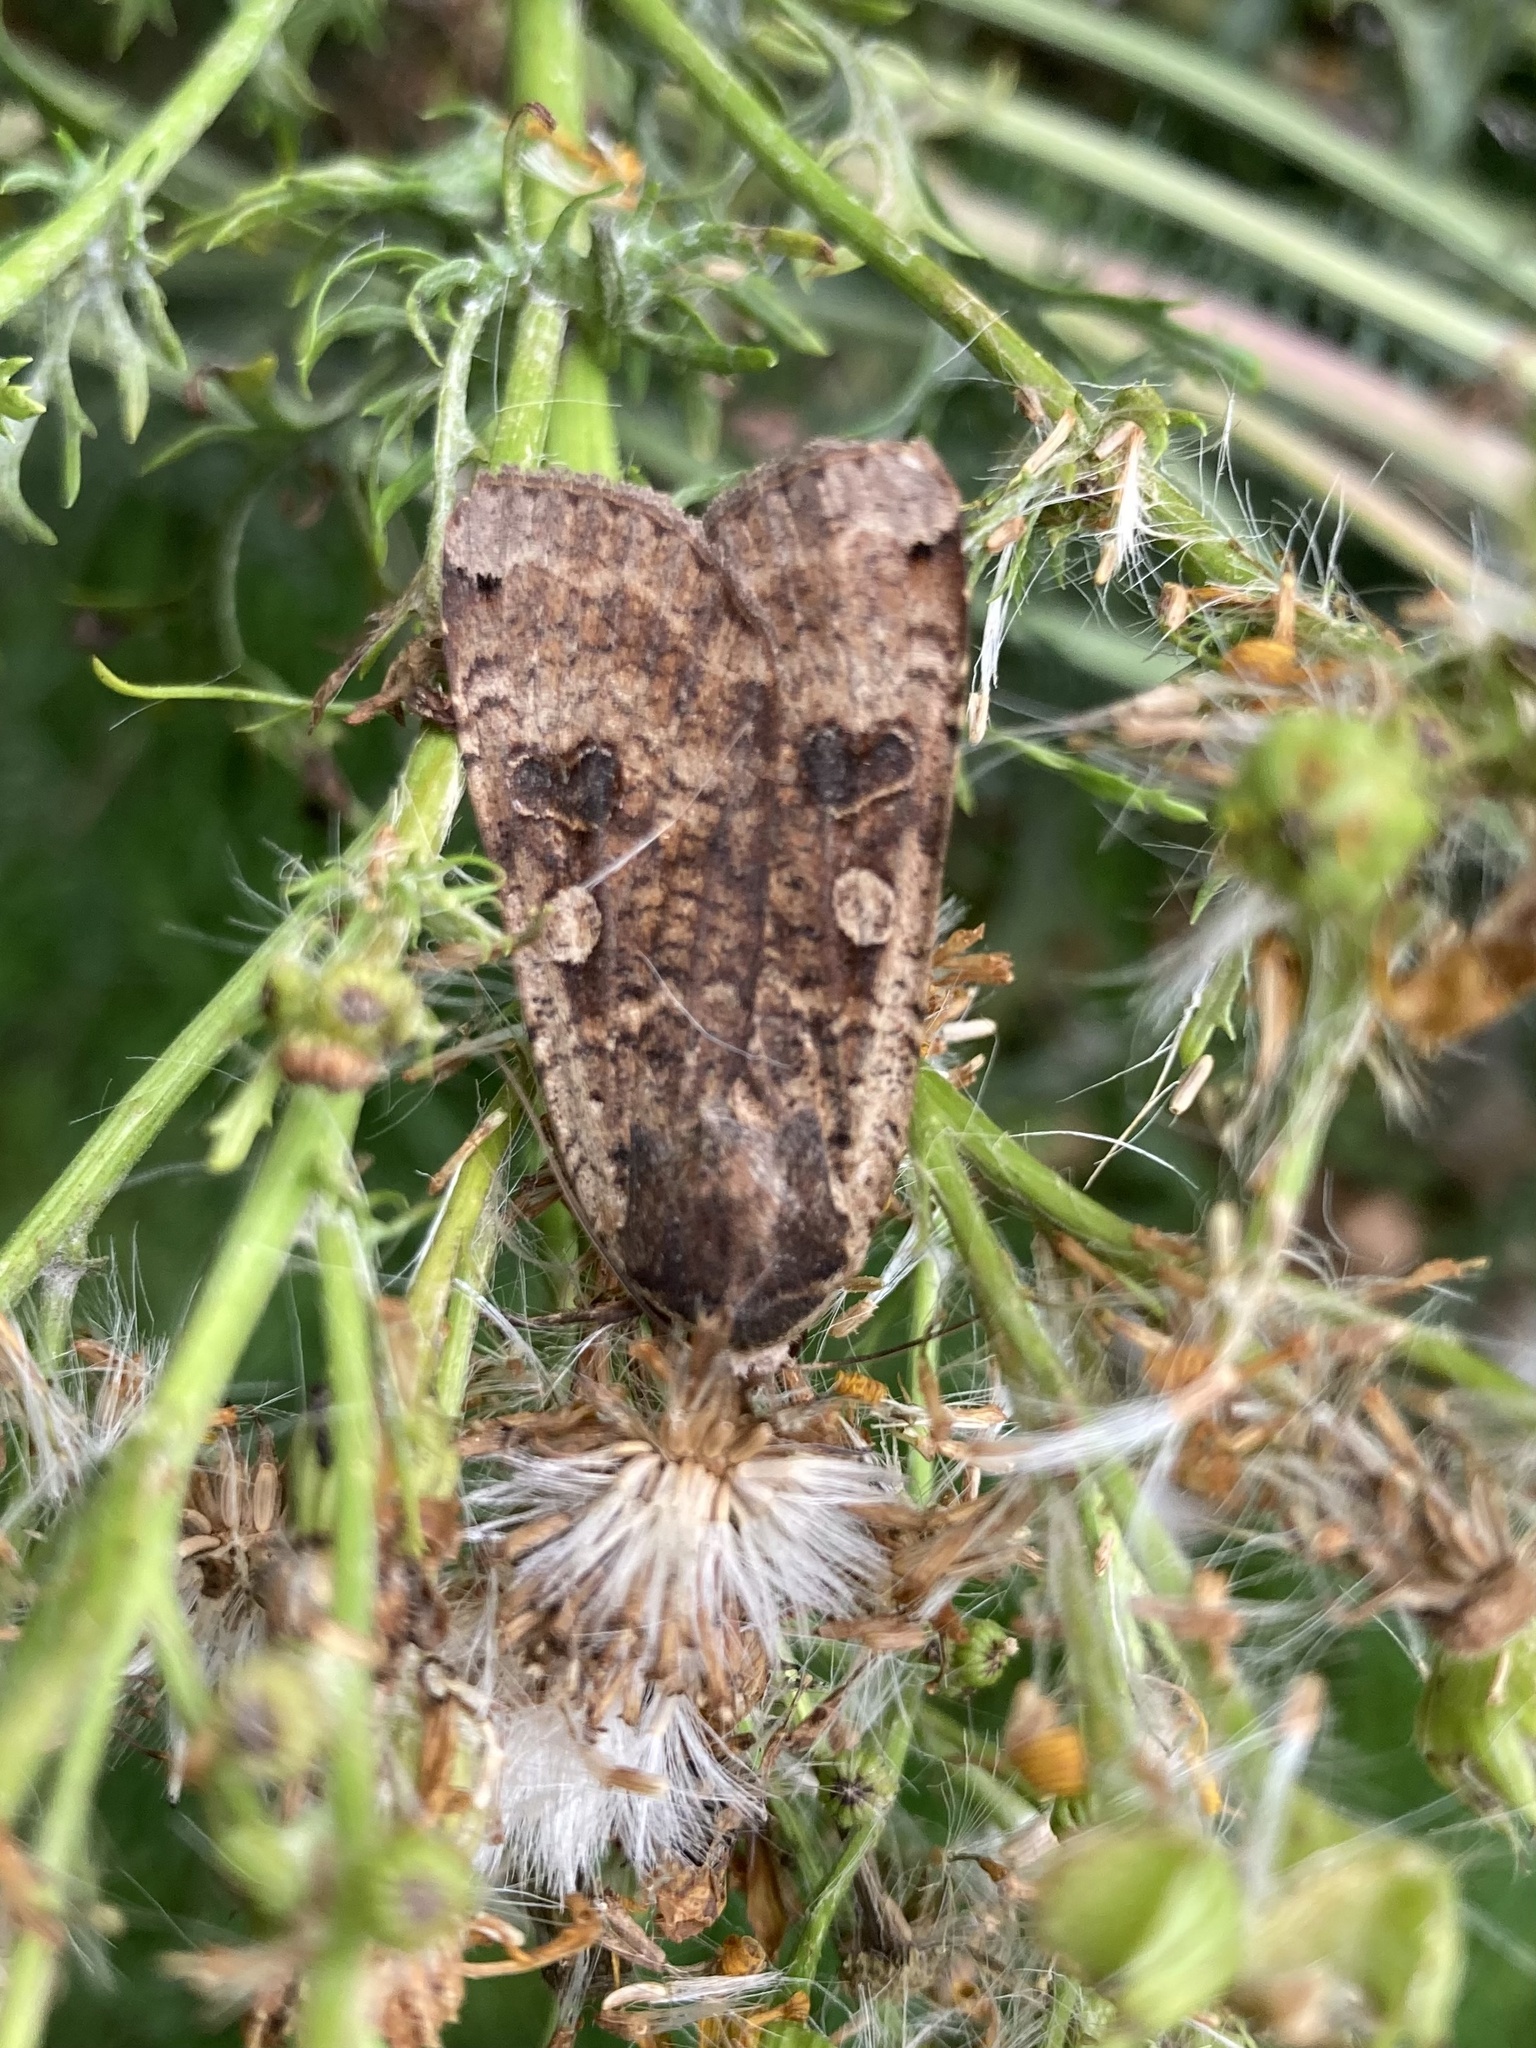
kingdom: Animalia
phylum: Arthropoda
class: Insecta
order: Lepidoptera
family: Noctuidae
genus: Noctua
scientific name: Noctua pronuba
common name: Large yellow underwing
